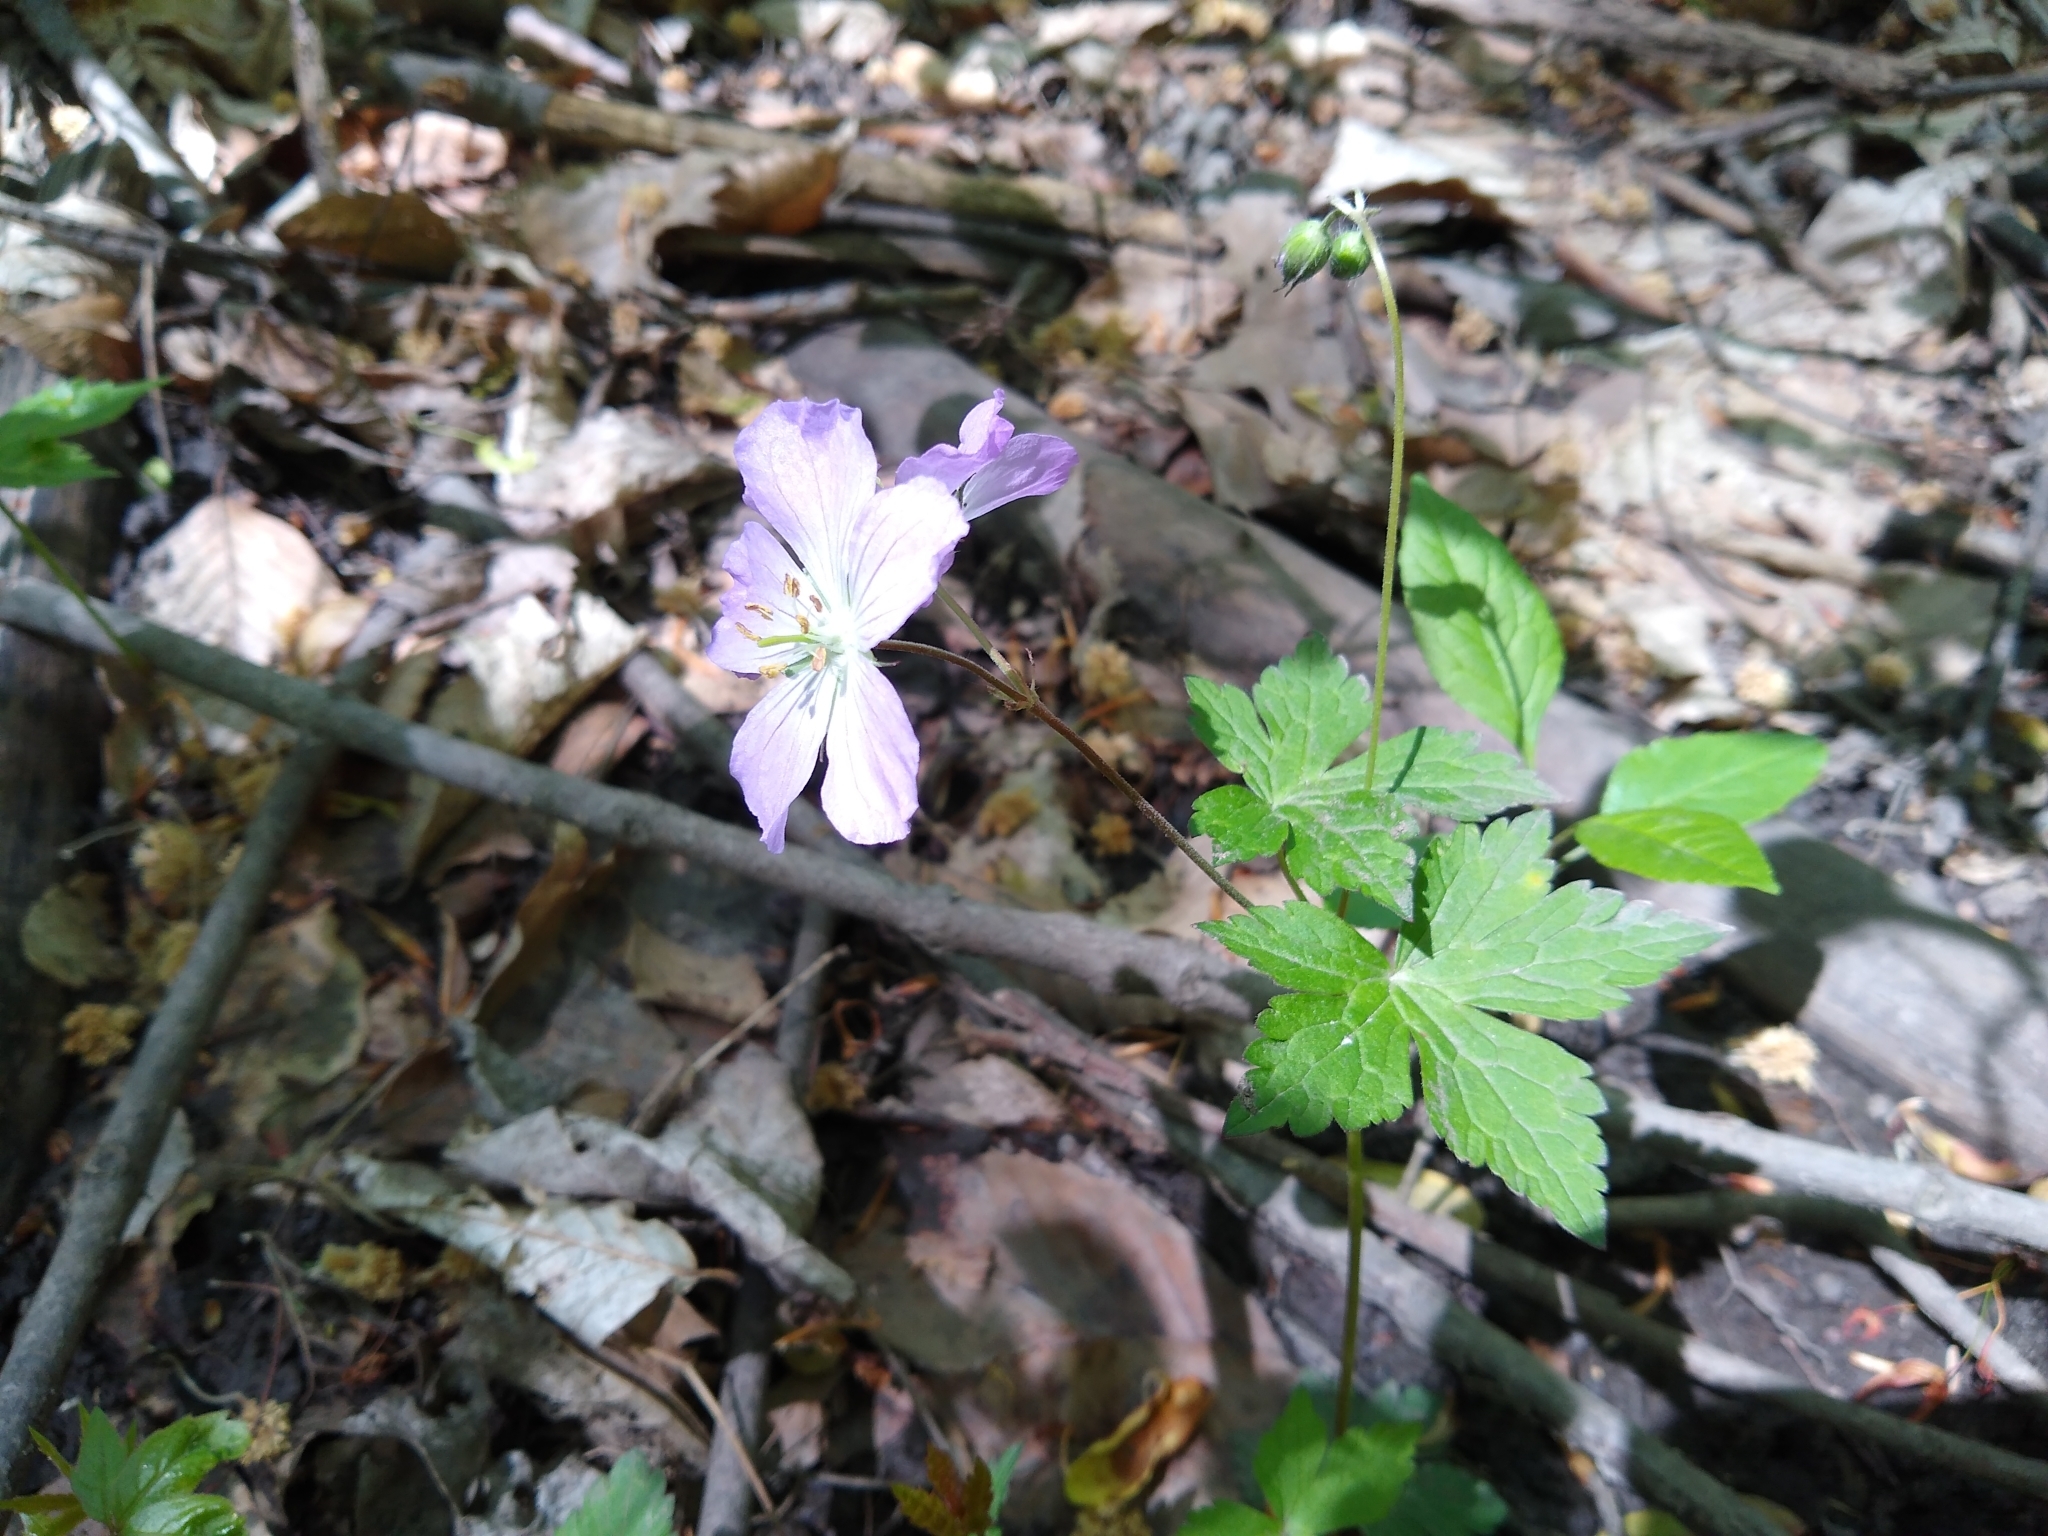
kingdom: Plantae
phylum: Tracheophyta
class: Magnoliopsida
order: Geraniales
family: Geraniaceae
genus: Geranium
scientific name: Geranium maculatum
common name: Spotted geranium
